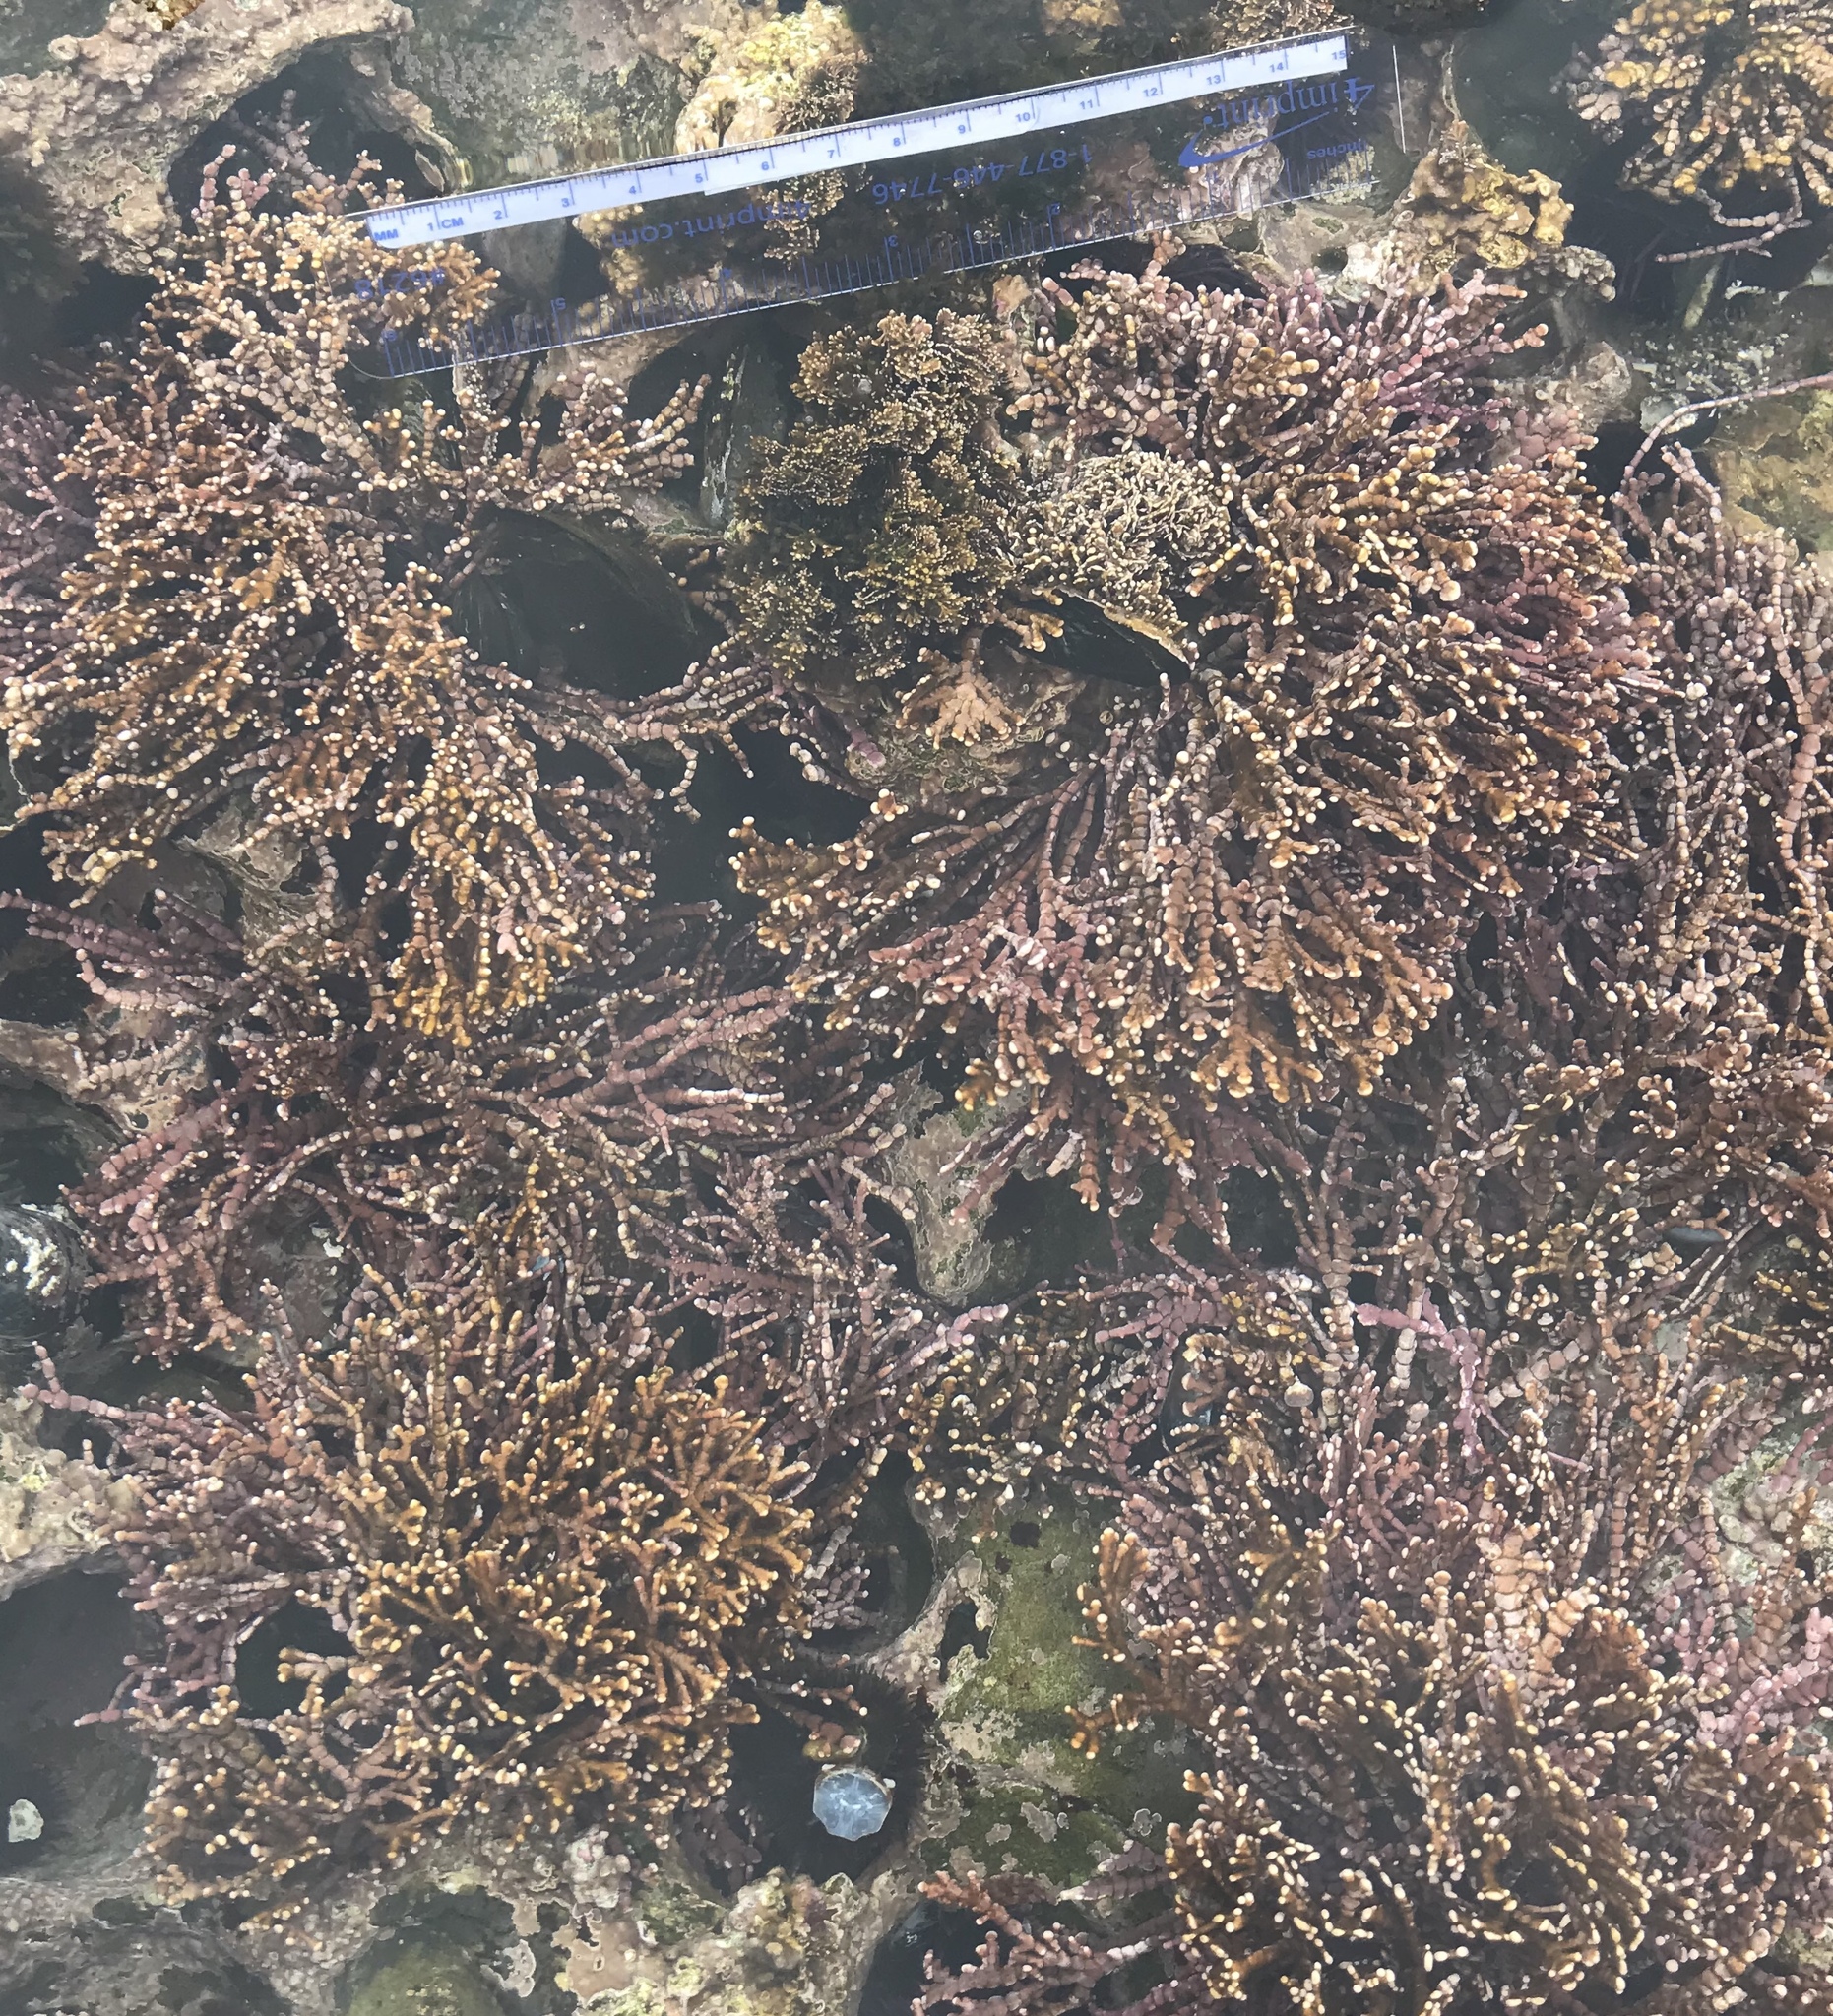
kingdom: Plantae
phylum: Rhodophyta
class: Florideophyceae
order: Corallinales
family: Corallinaceae
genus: Calliarthron
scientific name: Calliarthron tuberculosum
